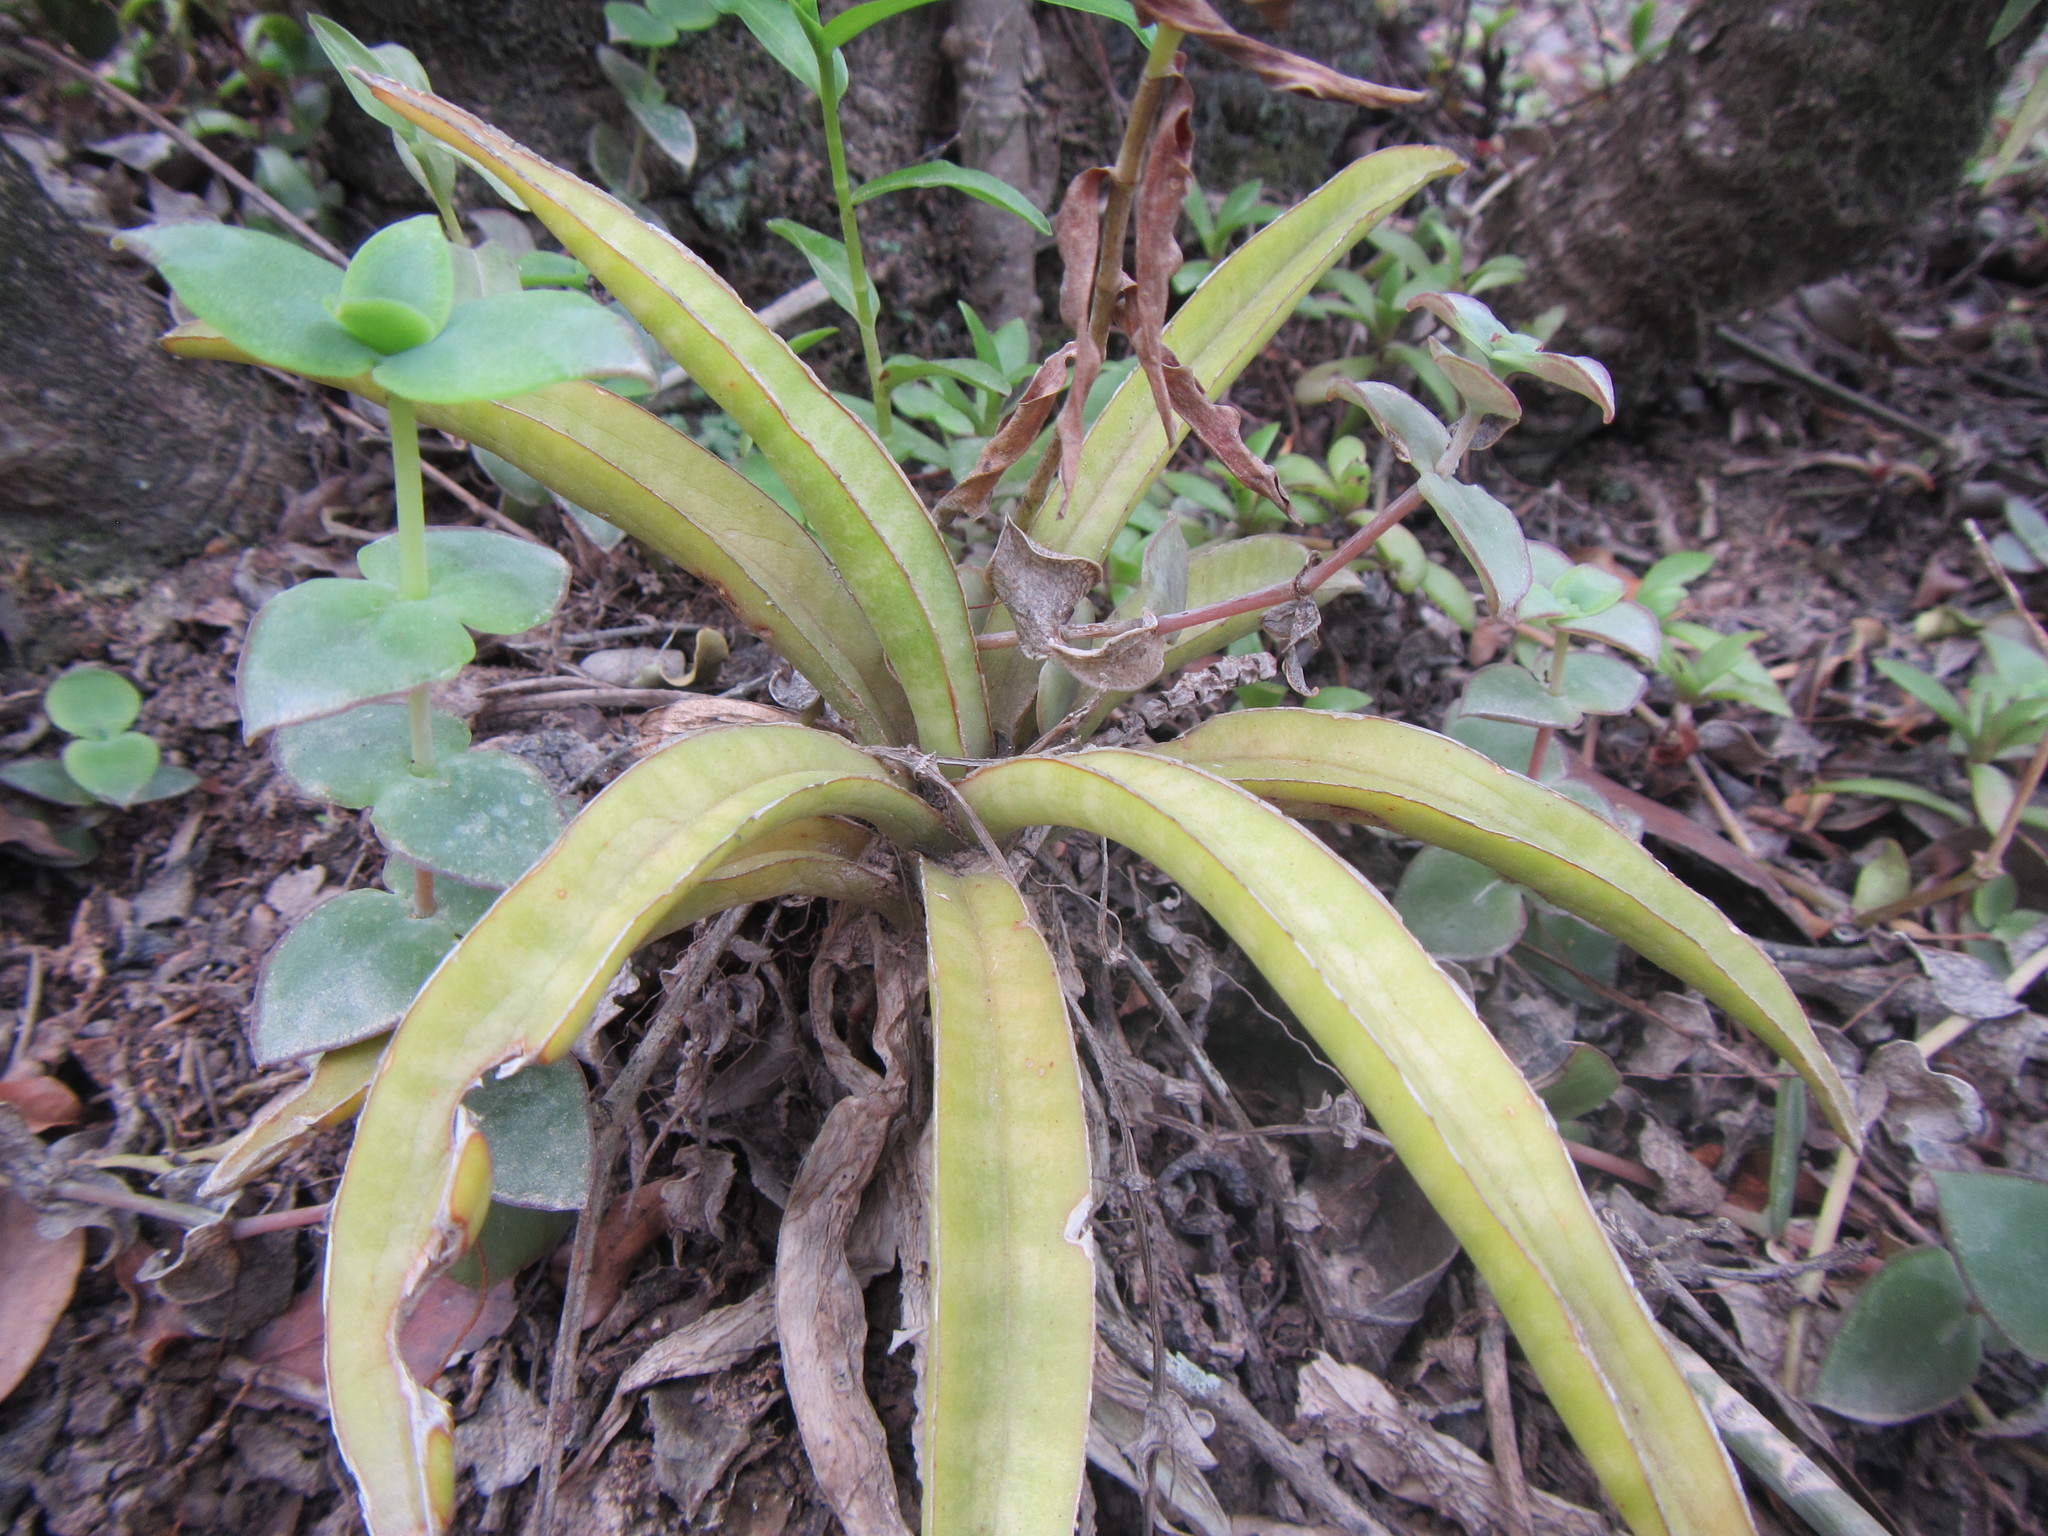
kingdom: Plantae
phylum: Tracheophyta
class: Liliopsida
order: Asparagales
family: Asparagaceae
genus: Dracaena
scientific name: Dracaena aethiopica
